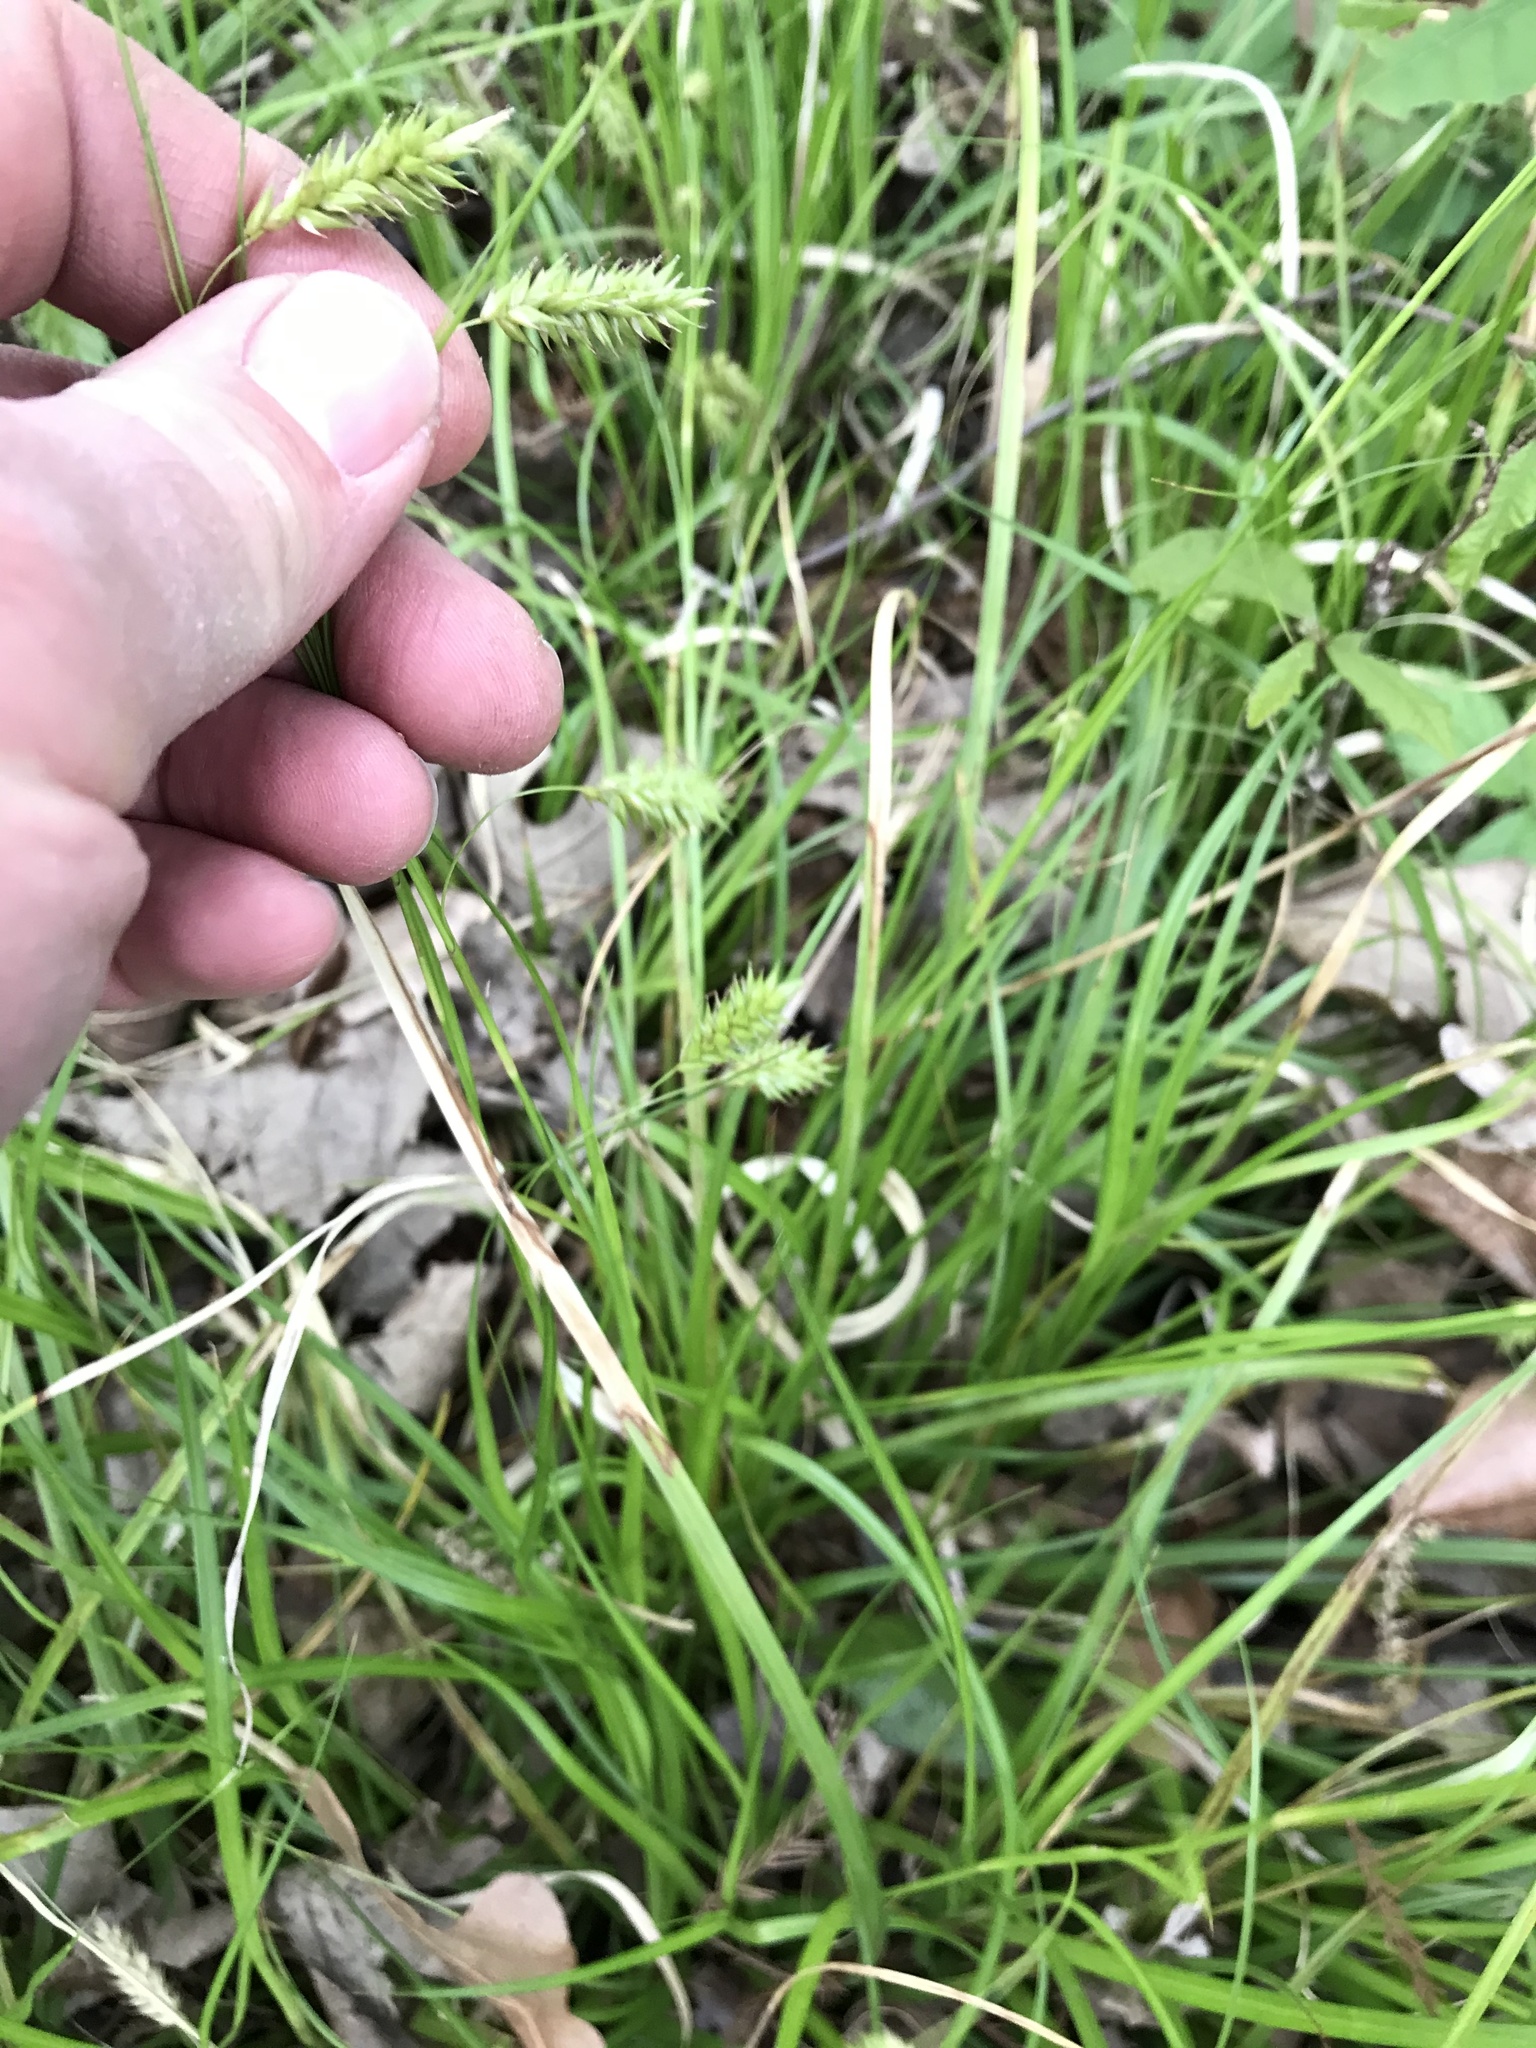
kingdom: Plantae
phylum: Tracheophyta
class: Liliopsida
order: Poales
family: Cyperaceae
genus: Carex
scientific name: Carex cherokeensis
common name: Cherokee sedge
